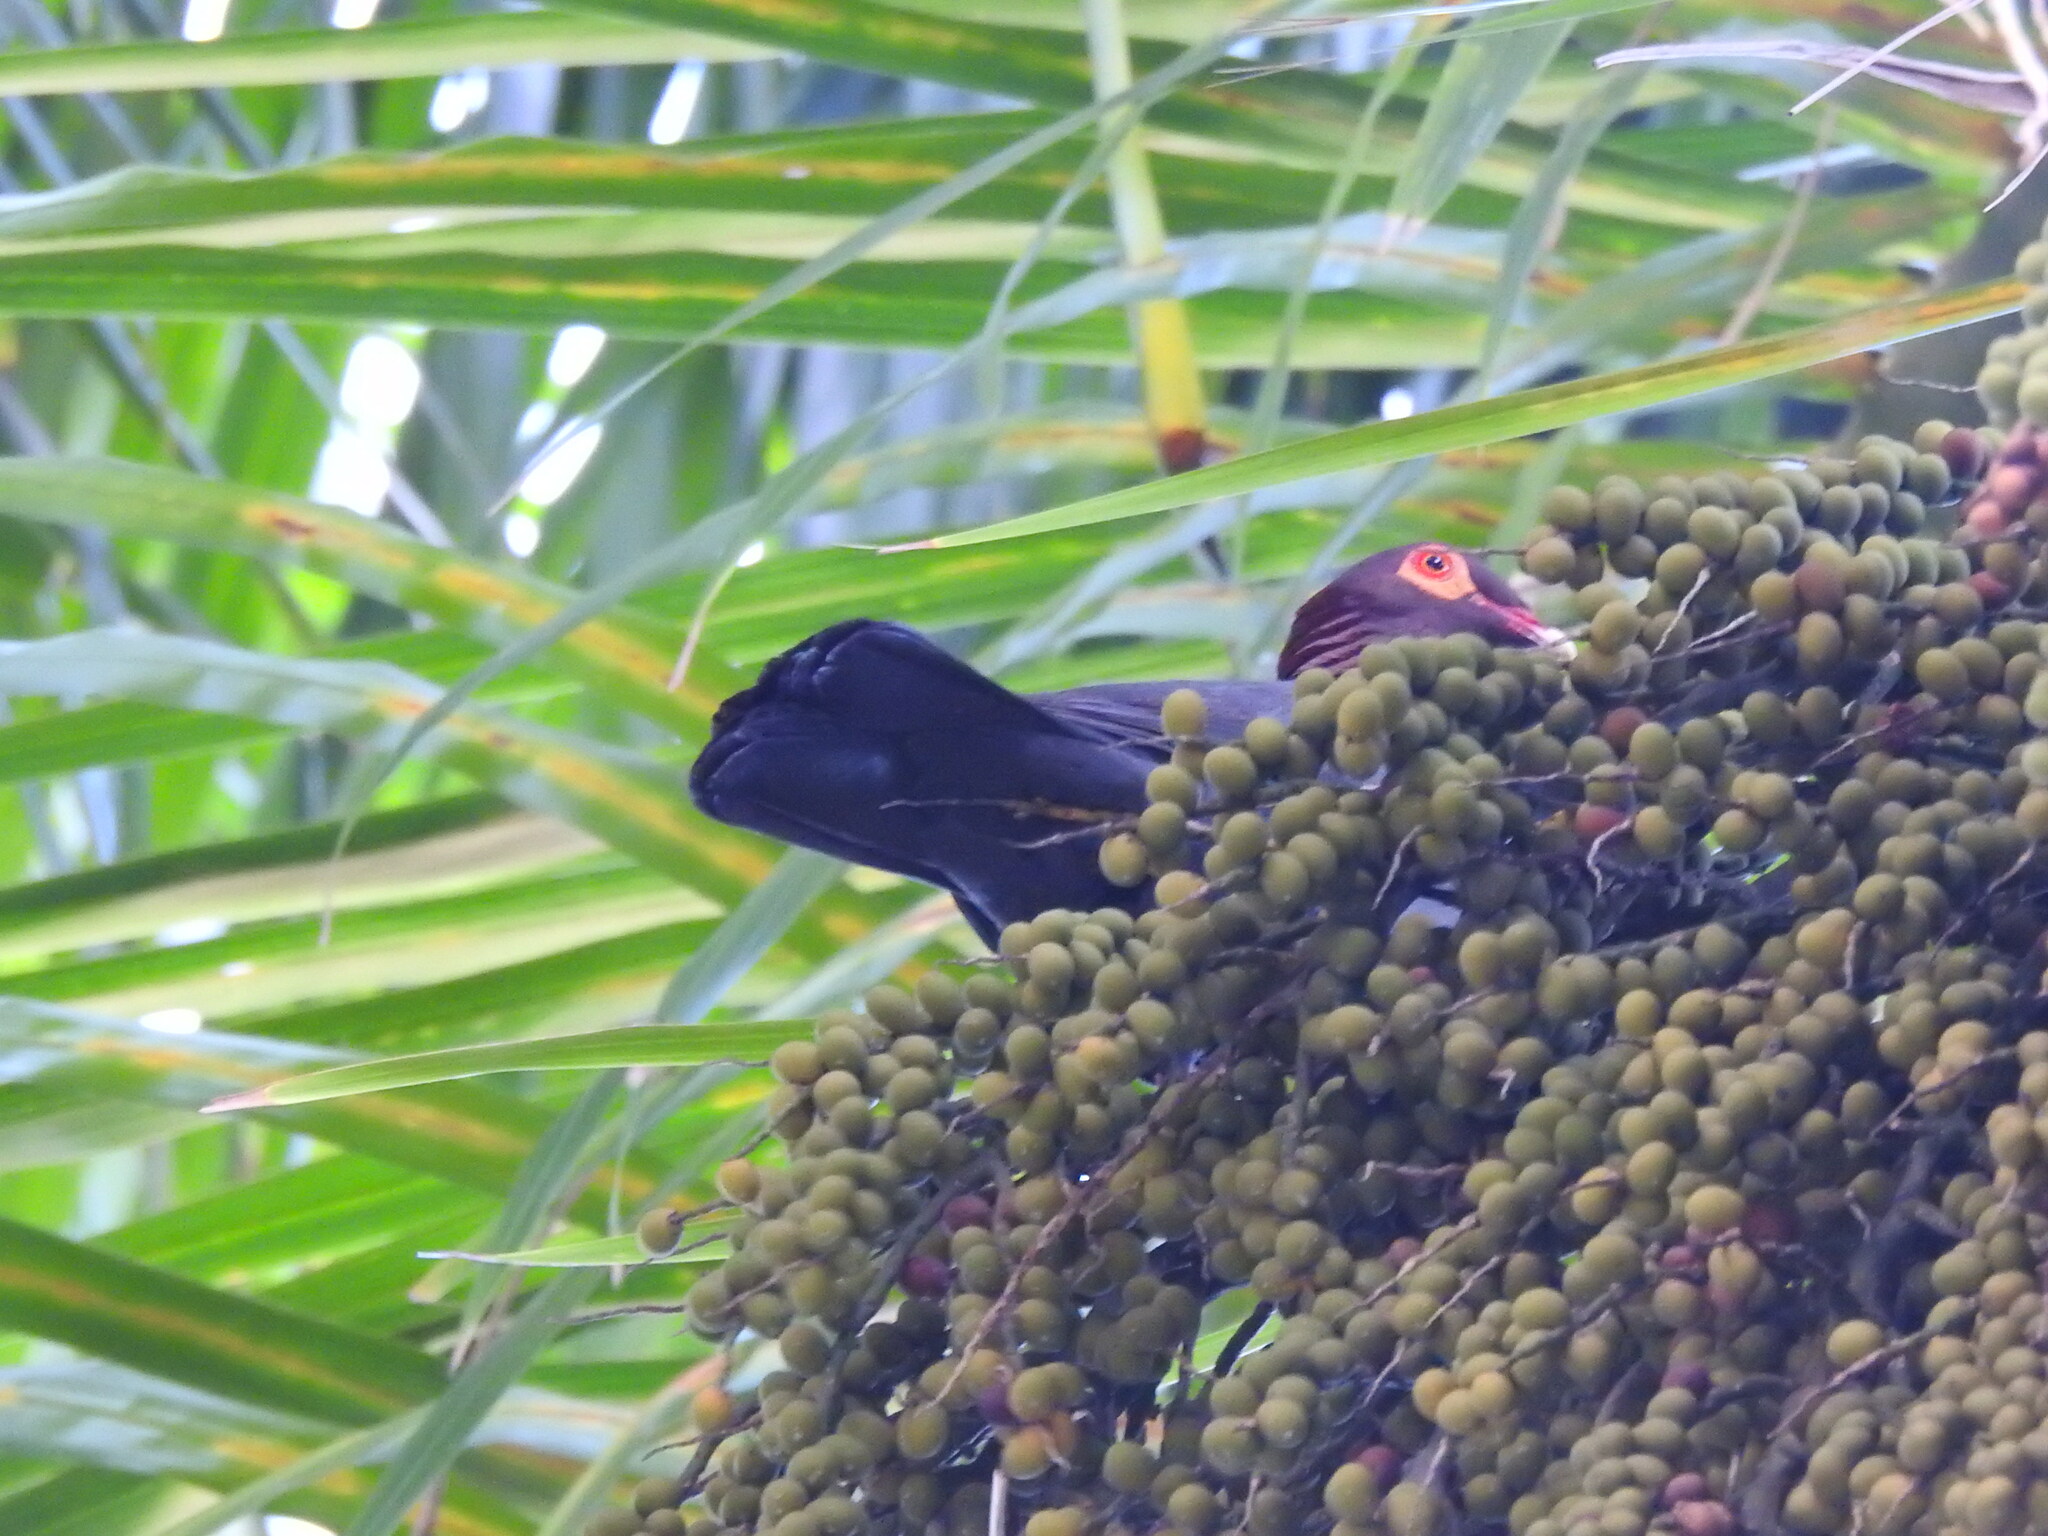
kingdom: Animalia
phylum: Chordata
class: Aves
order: Columbiformes
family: Columbidae
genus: Patagioenas
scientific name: Patagioenas squamosa
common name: Scaly-naped pigeon
